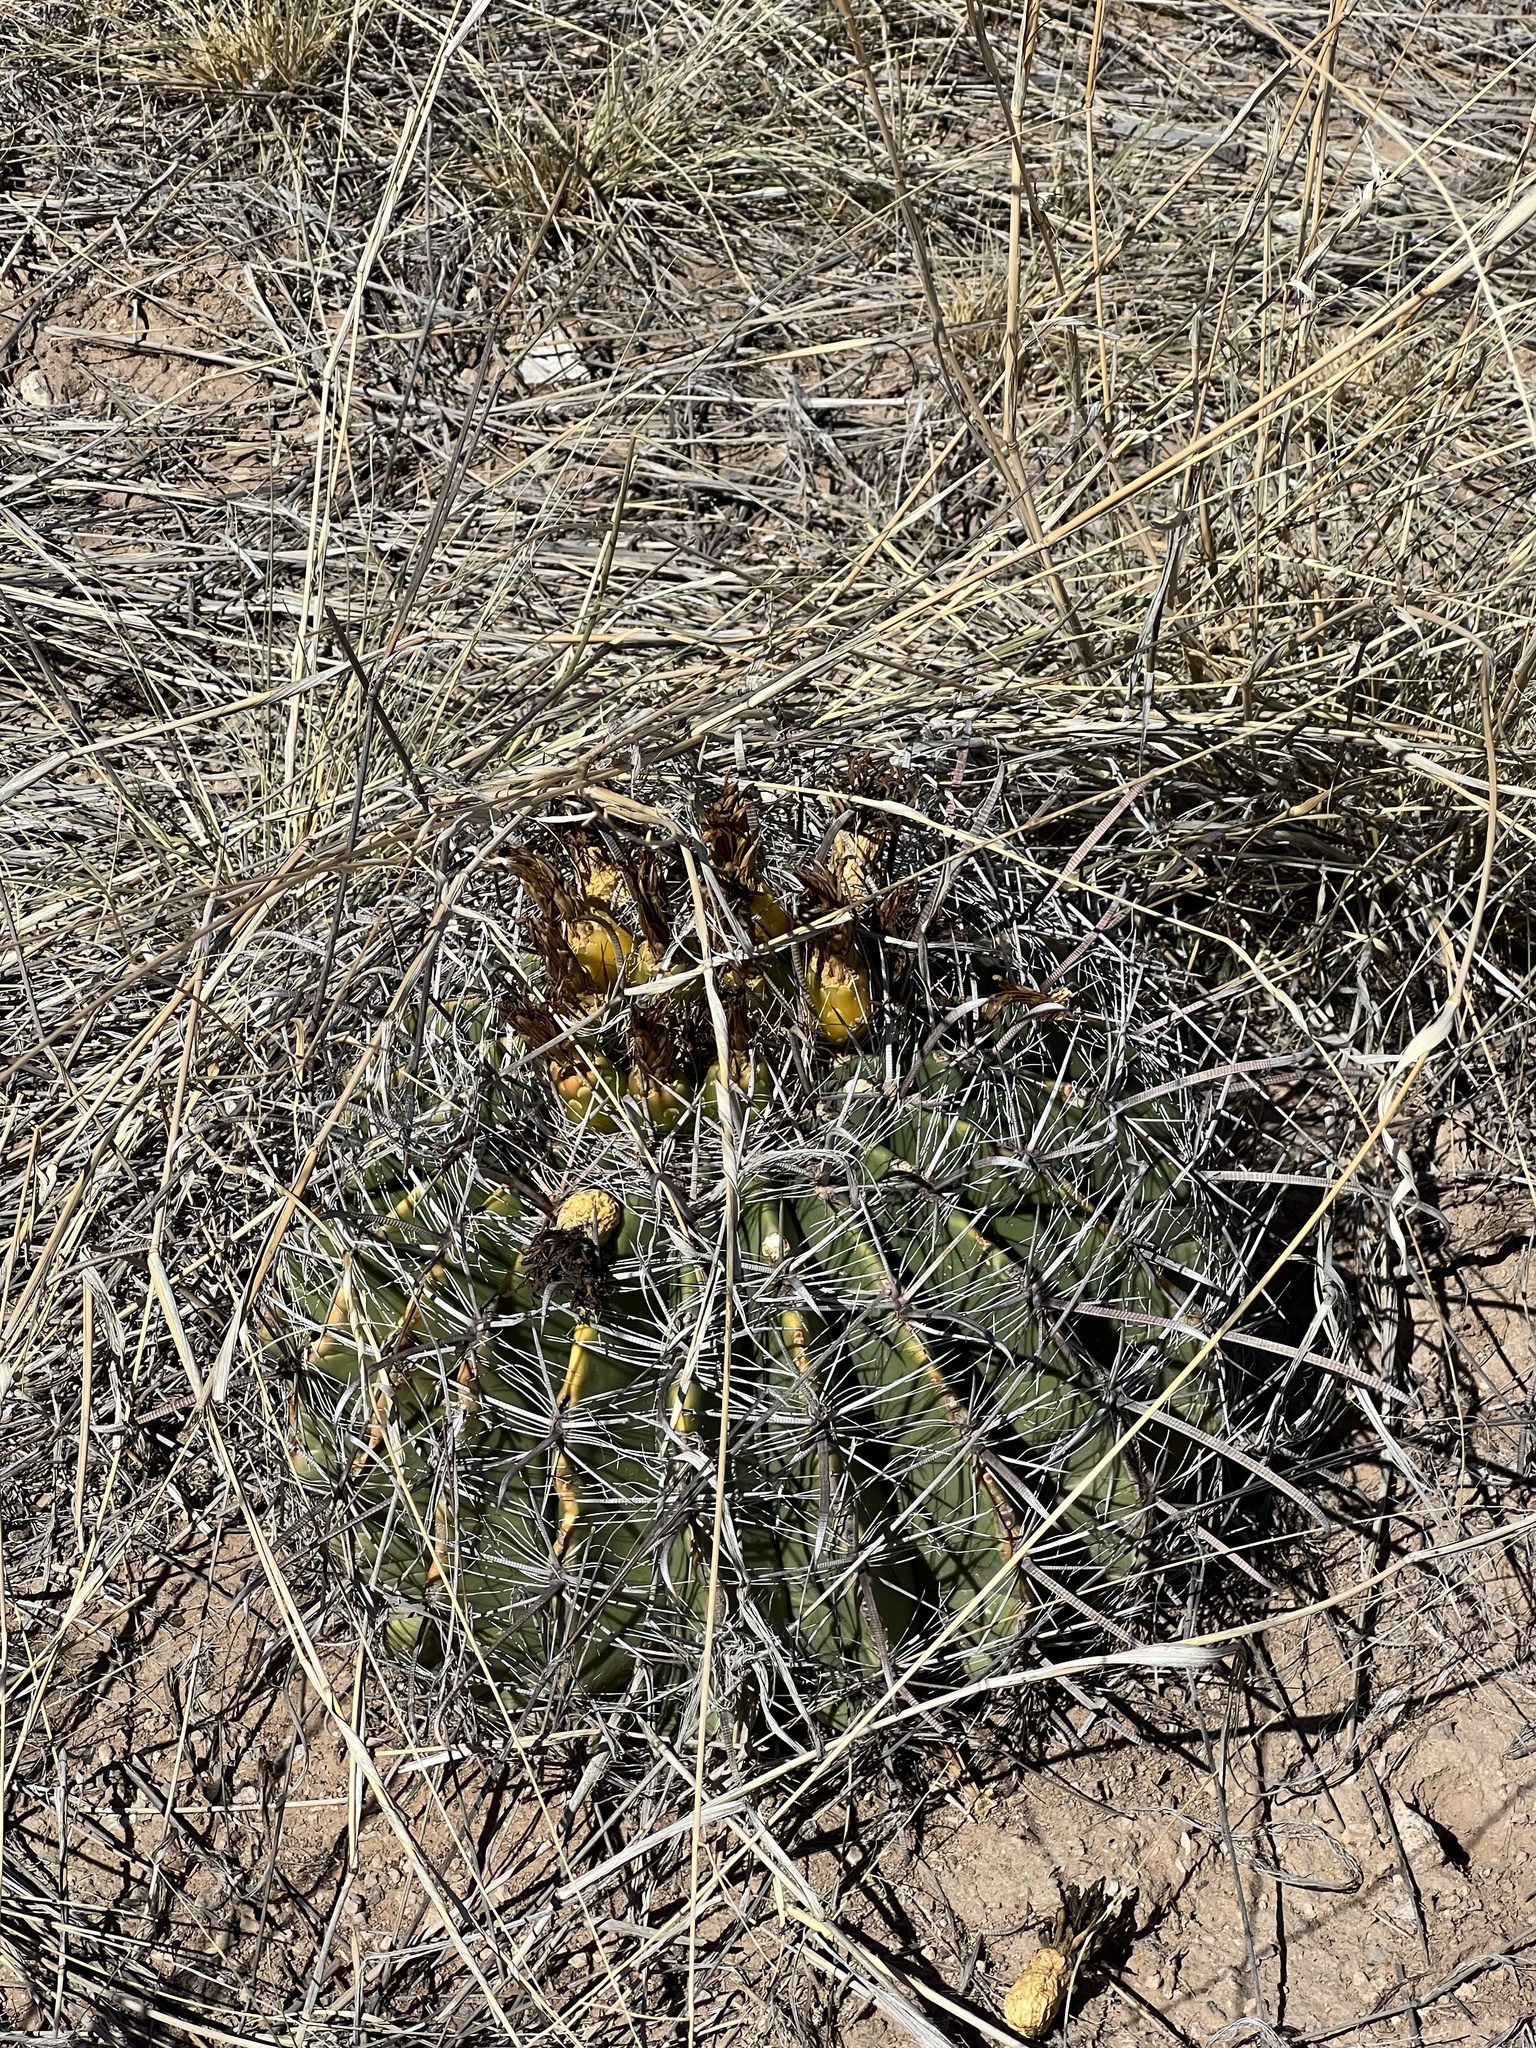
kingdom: Plantae
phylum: Tracheophyta
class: Magnoliopsida
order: Caryophyllales
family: Cactaceae
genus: Ferocactus
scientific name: Ferocactus wislizeni
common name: Candy barrel cactus
